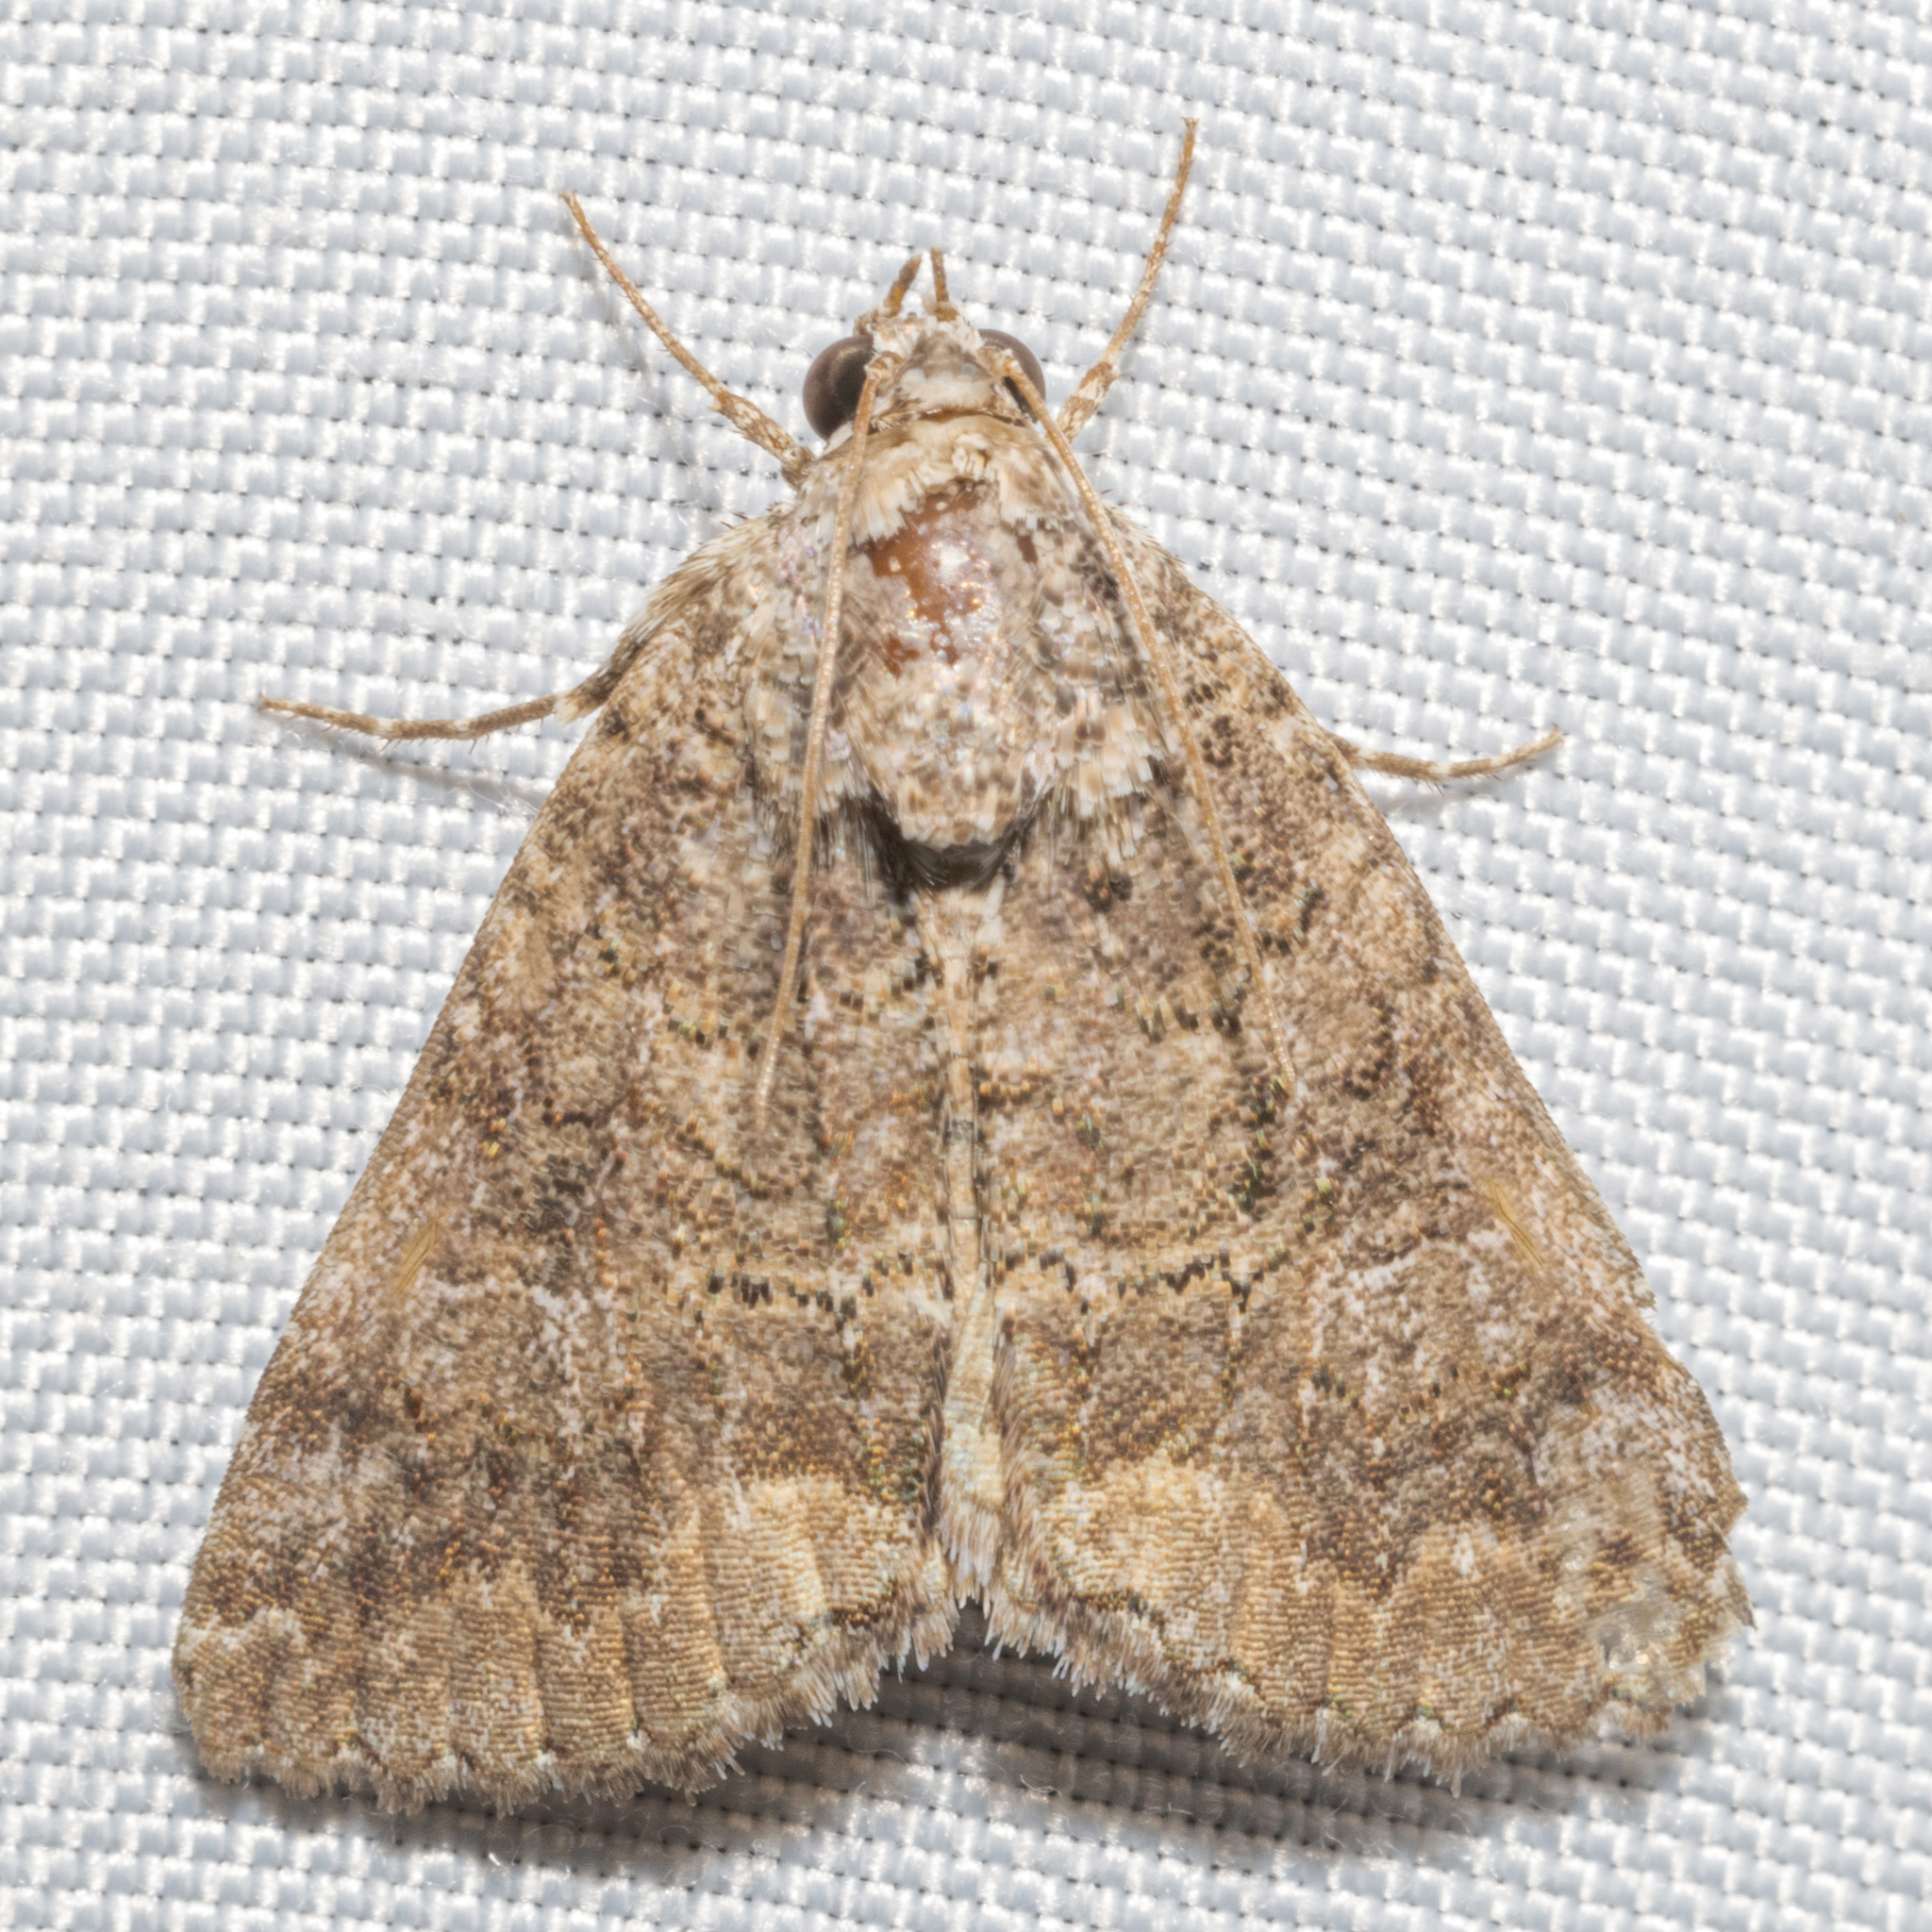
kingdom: Animalia
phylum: Arthropoda
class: Insecta
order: Lepidoptera
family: Erebidae
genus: Eubolina
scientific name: Eubolina impartialis
